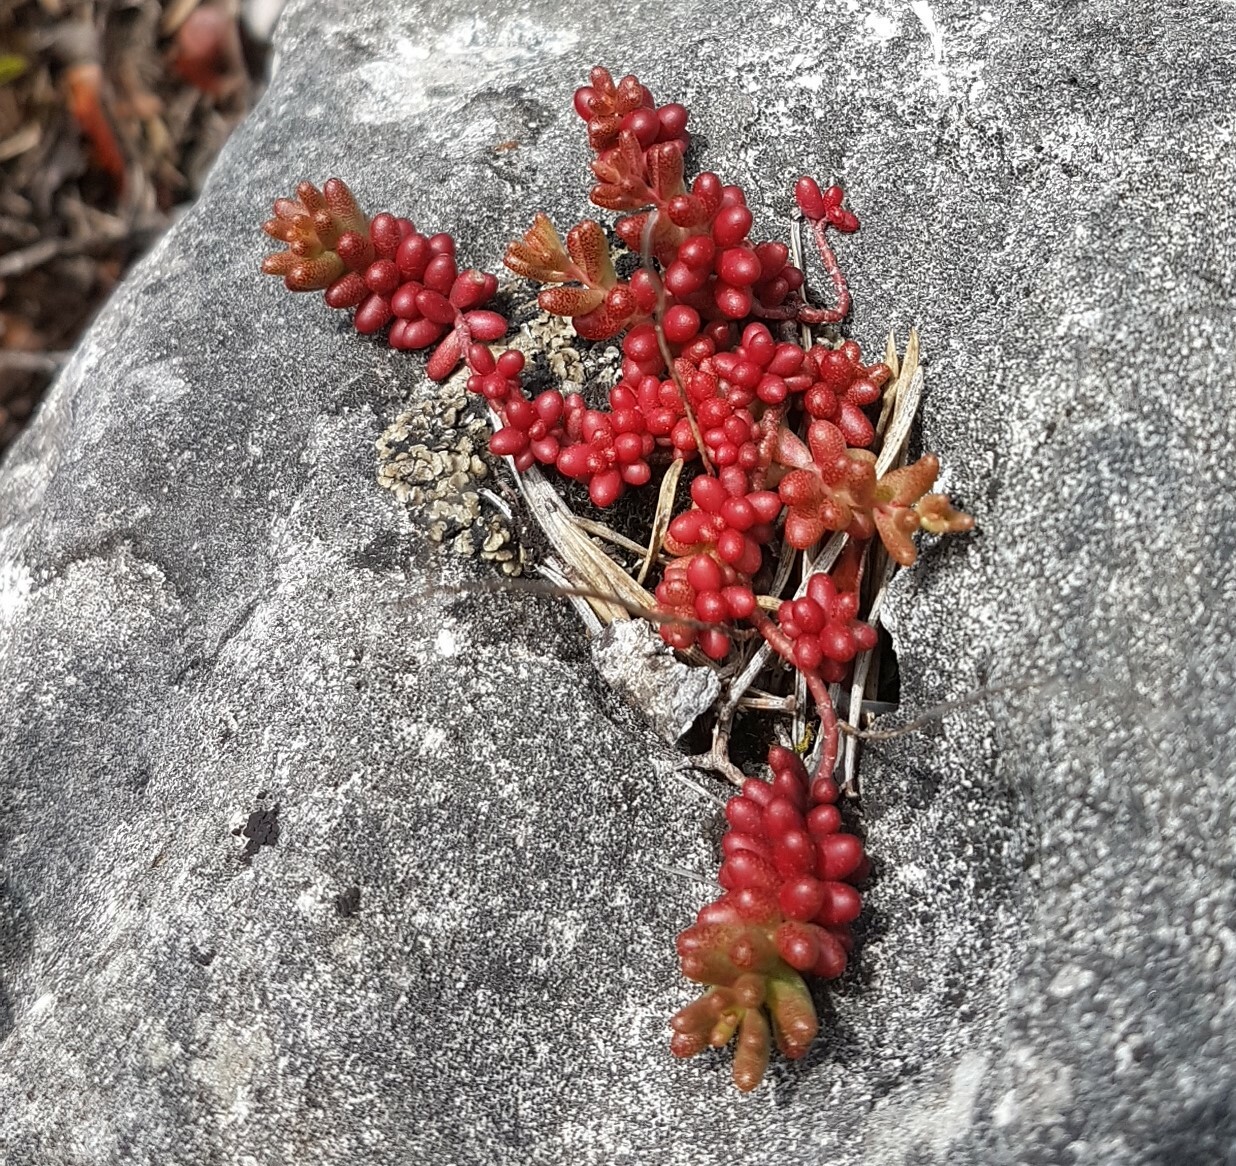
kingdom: Plantae
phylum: Tracheophyta
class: Magnoliopsida
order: Saxifragales
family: Crassulaceae
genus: Sedum
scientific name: Sedum album
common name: White stonecrop
